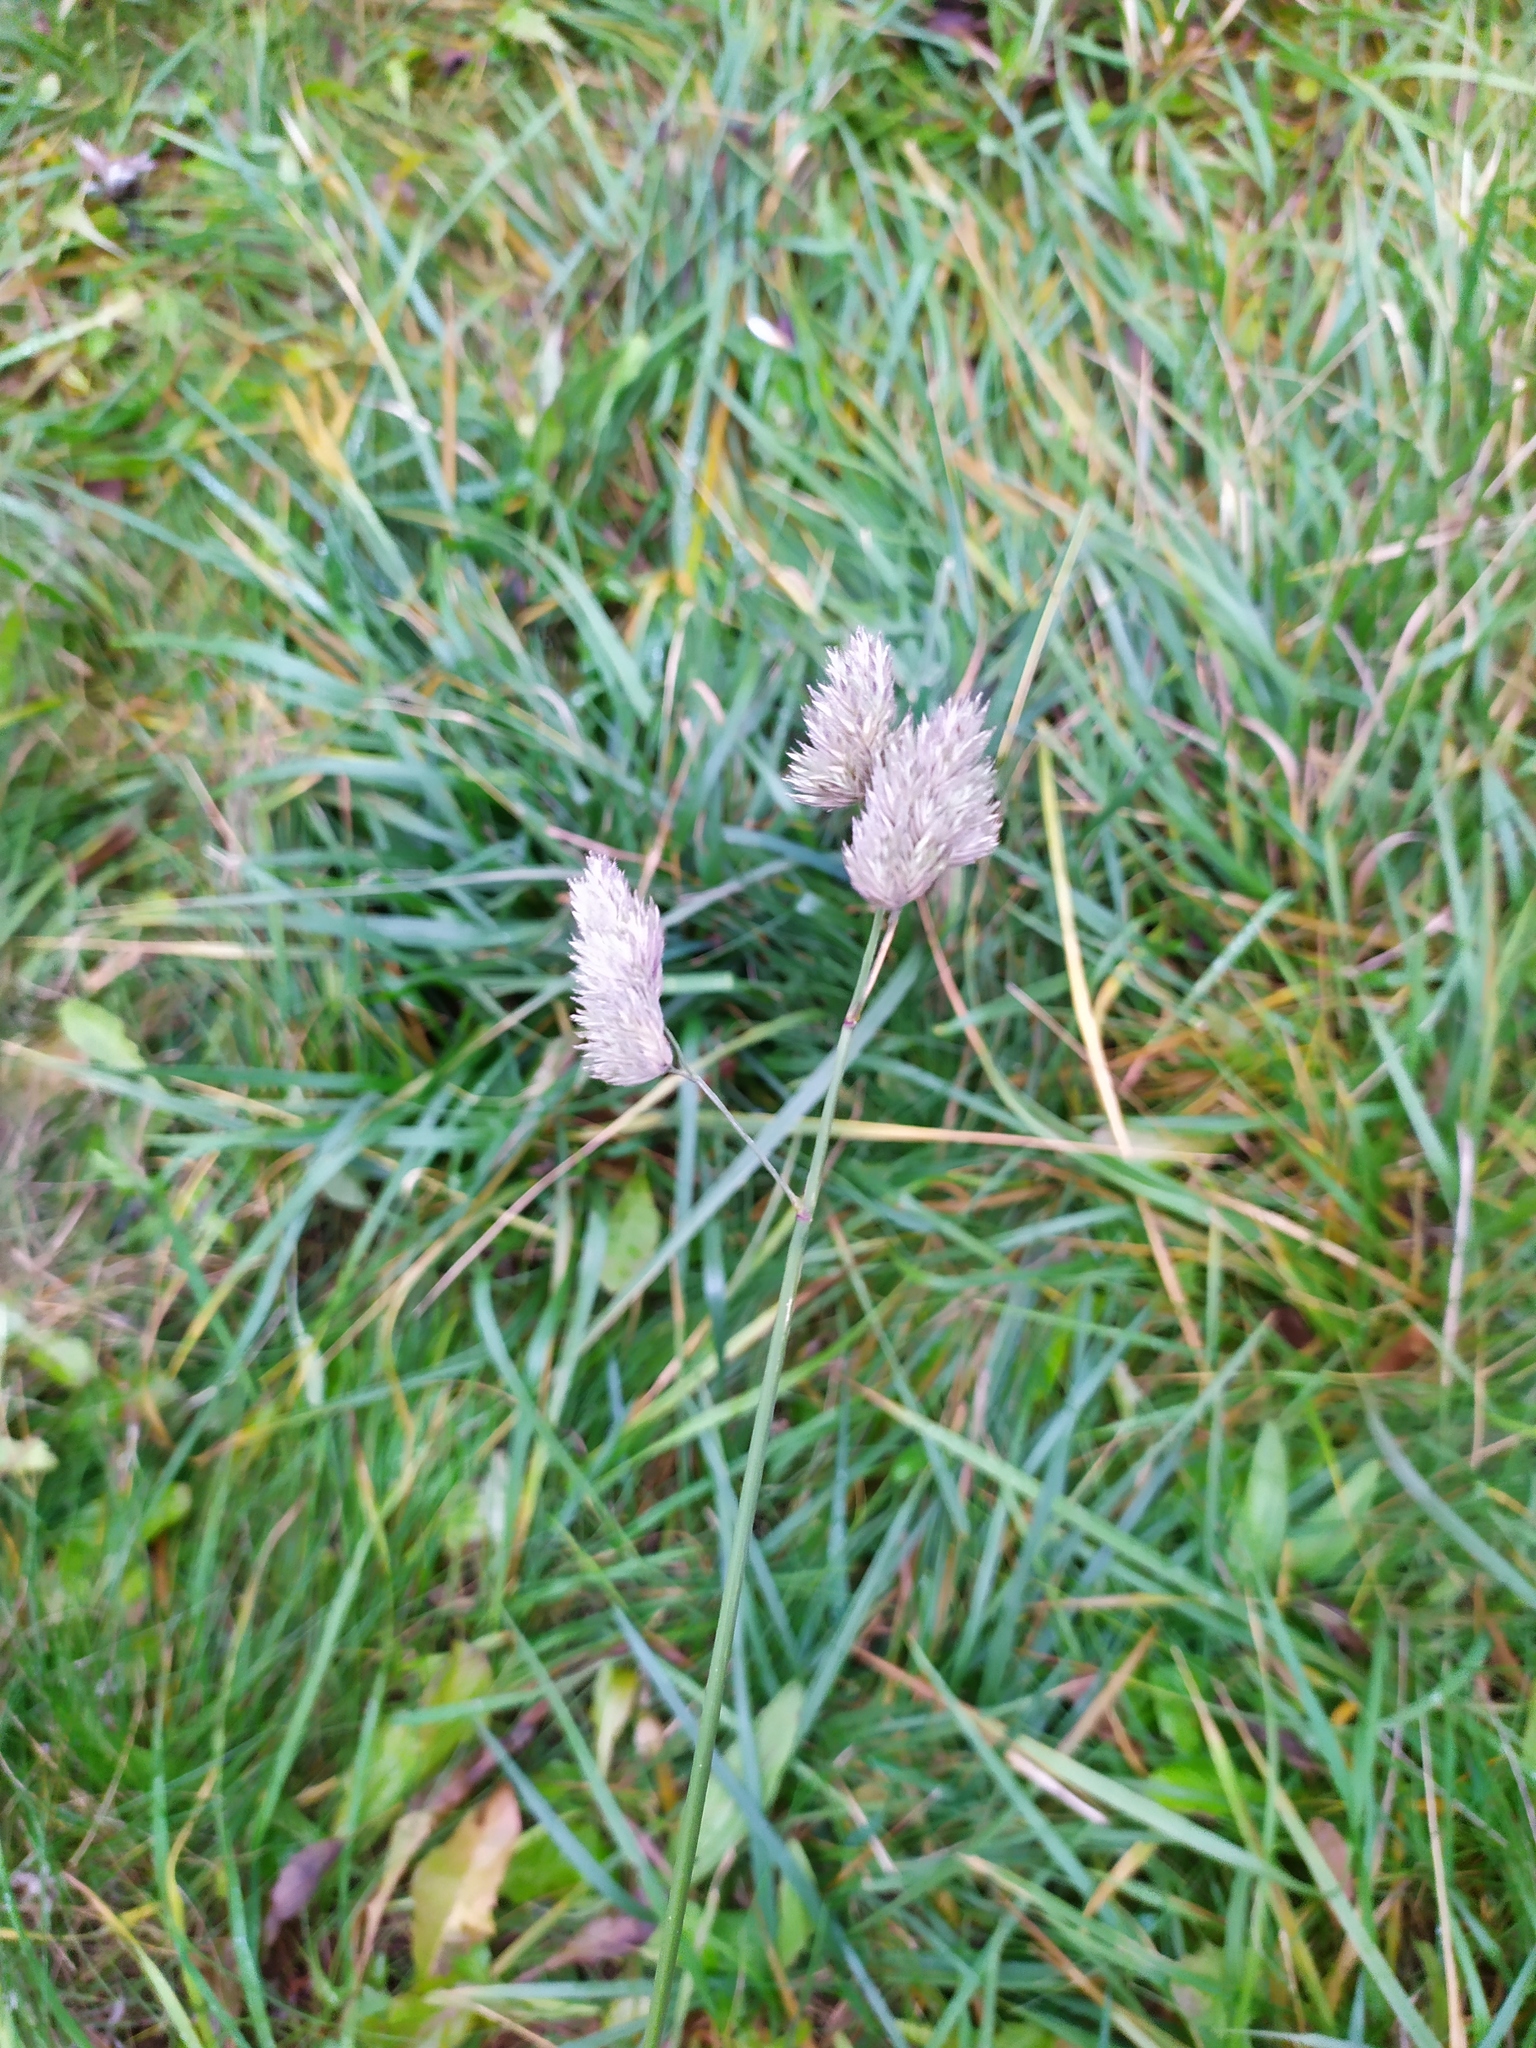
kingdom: Plantae
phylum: Tracheophyta
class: Liliopsida
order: Poales
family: Poaceae
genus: Dactylis
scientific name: Dactylis glomerata
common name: Orchardgrass
